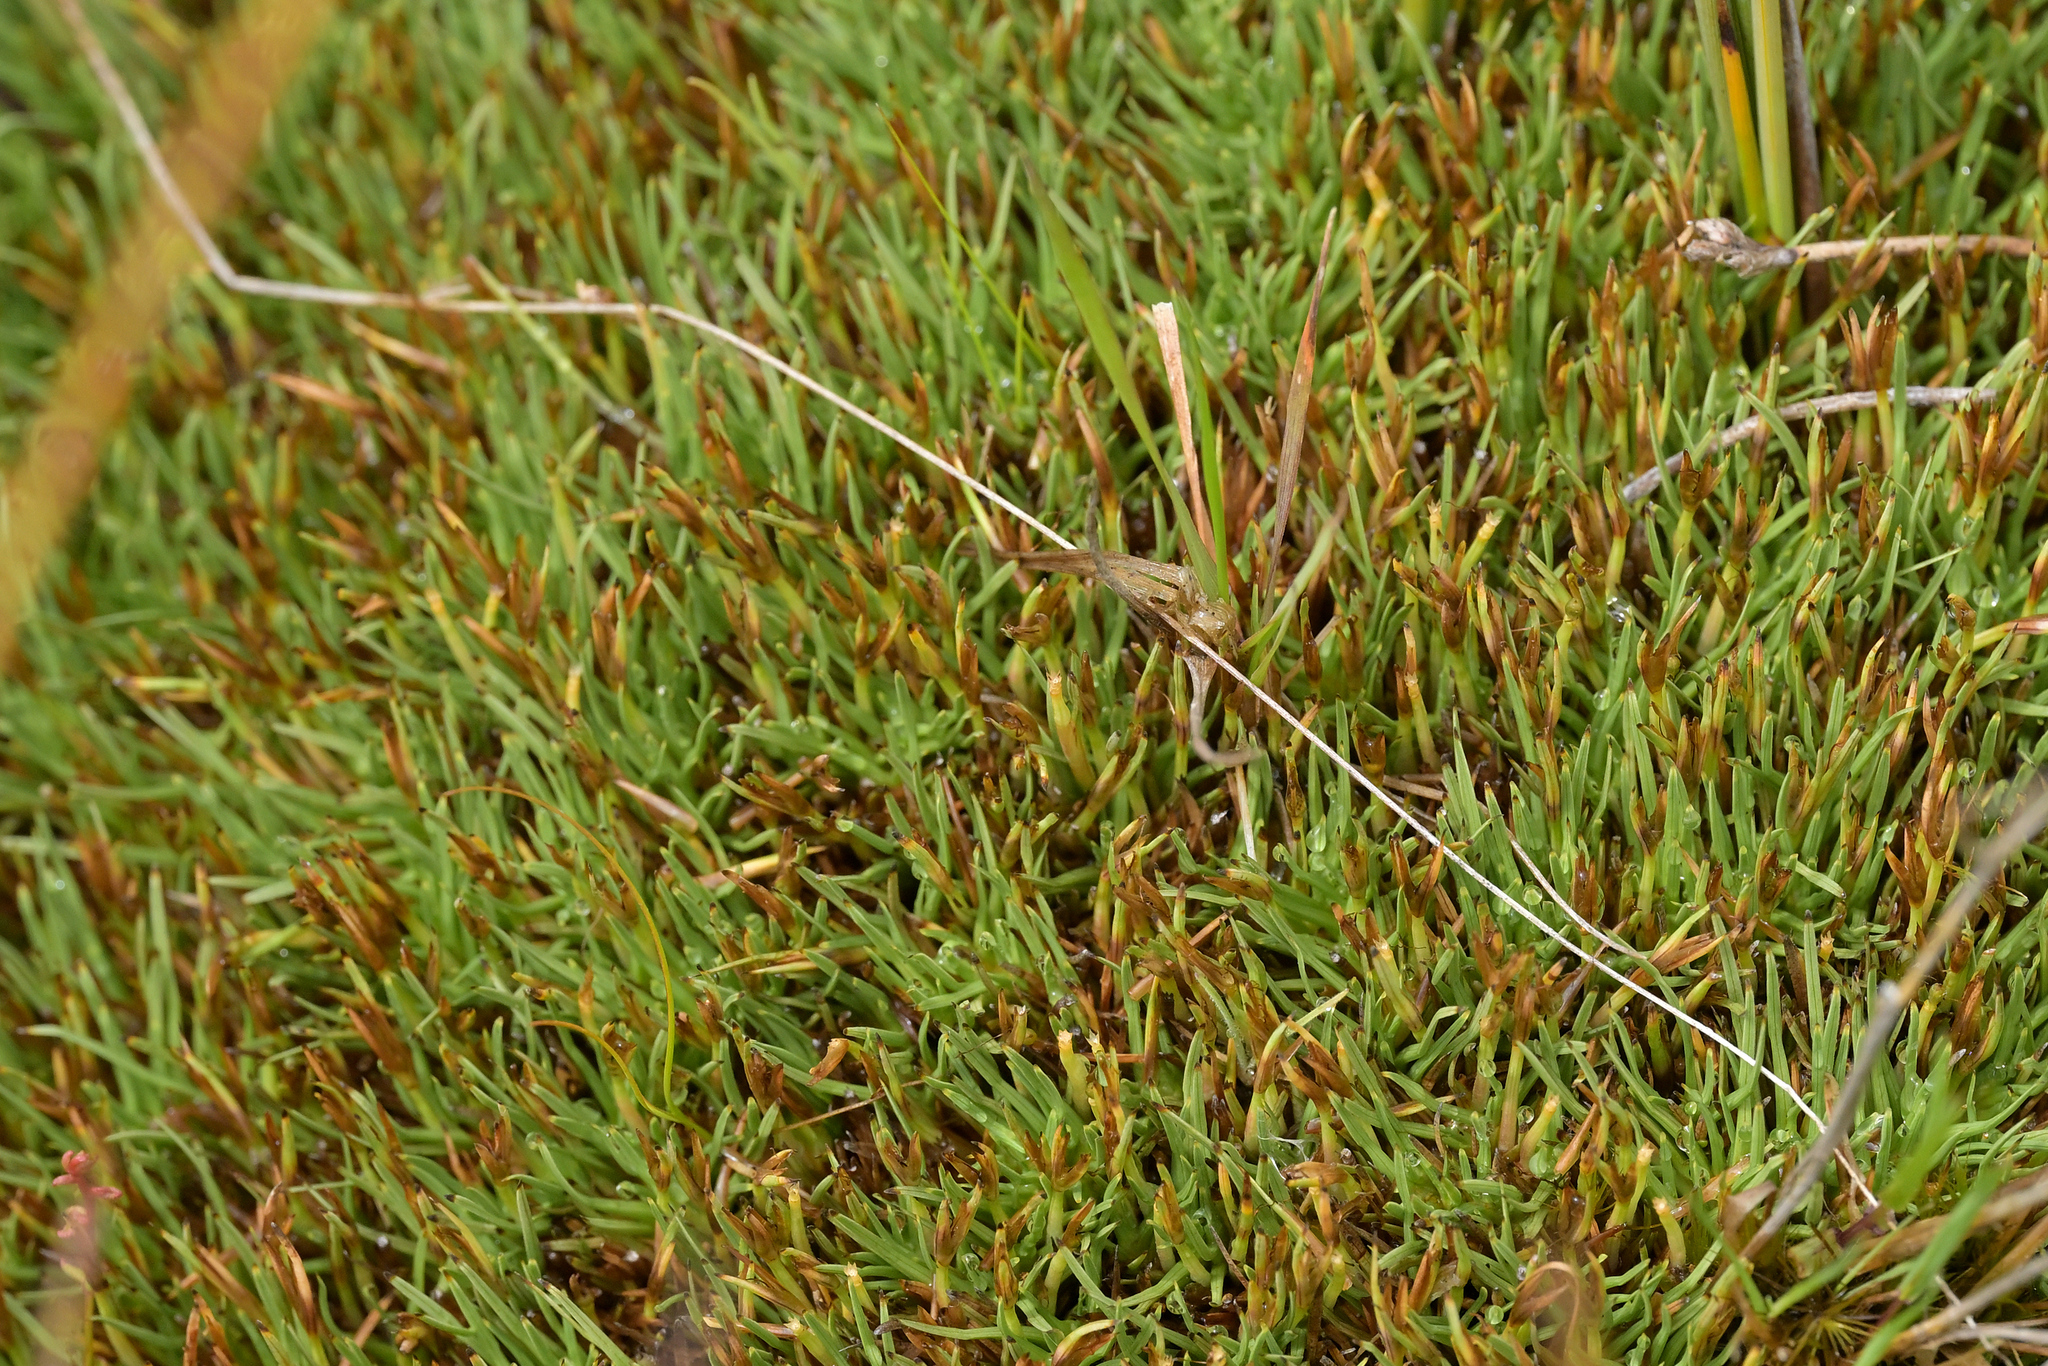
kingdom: Plantae
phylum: Tracheophyta
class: Liliopsida
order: Poales
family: Cyperaceae
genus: Oreobolus
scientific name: Oreobolus pectinatus
